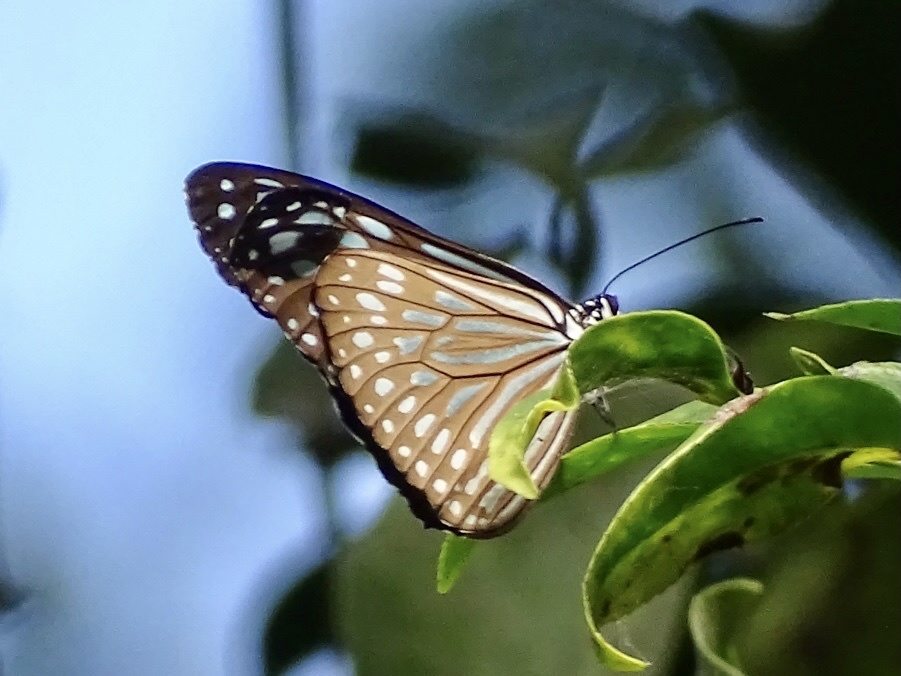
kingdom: Animalia
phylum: Arthropoda
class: Insecta
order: Lepidoptera
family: Nymphalidae
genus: Ideopsis
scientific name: Ideopsis similis
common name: Ceylon blue glassy tiger
